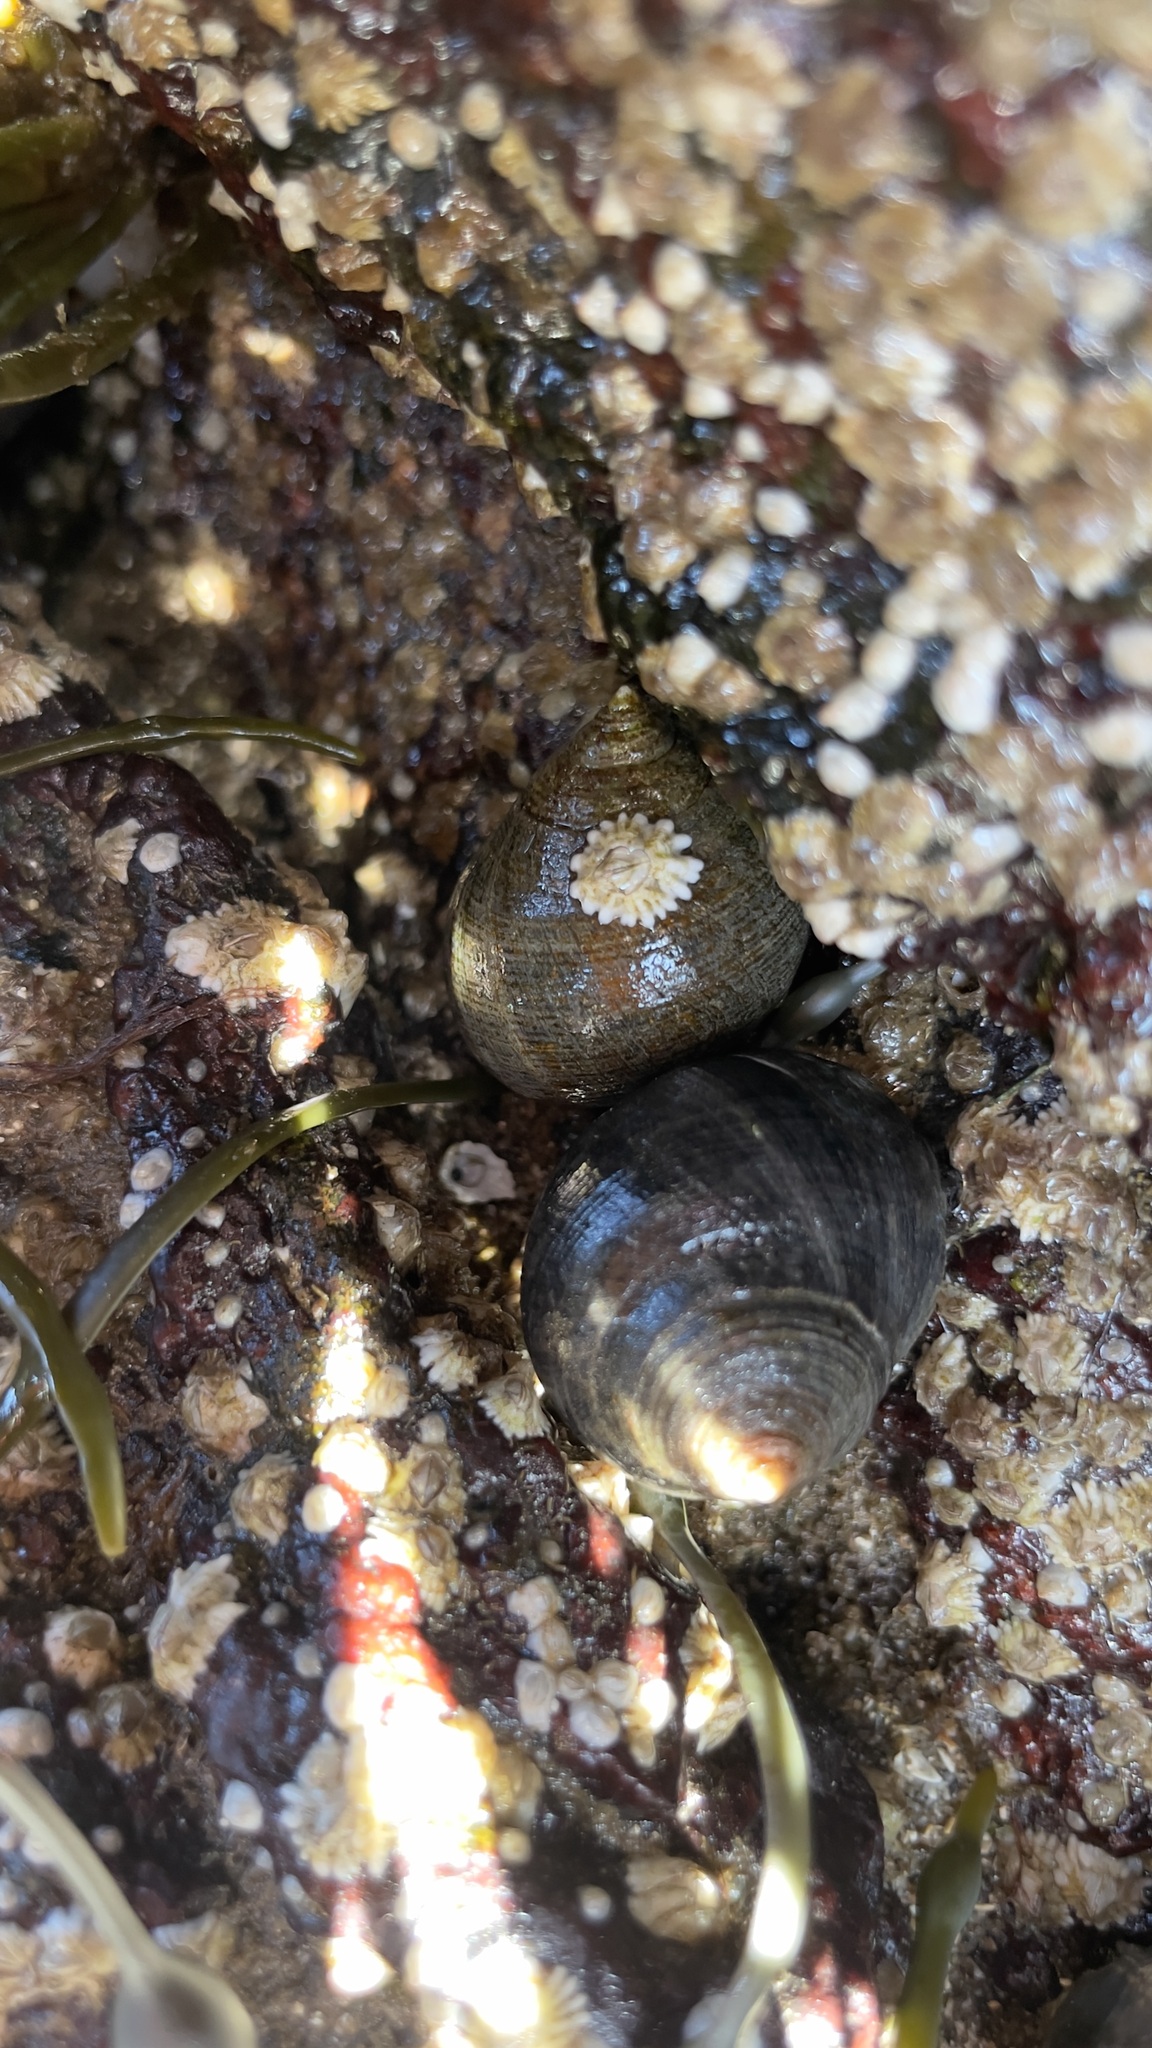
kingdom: Animalia
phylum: Mollusca
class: Gastropoda
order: Littorinimorpha
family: Littorinidae
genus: Littorina
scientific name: Littorina littorea
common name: Common periwinkle
